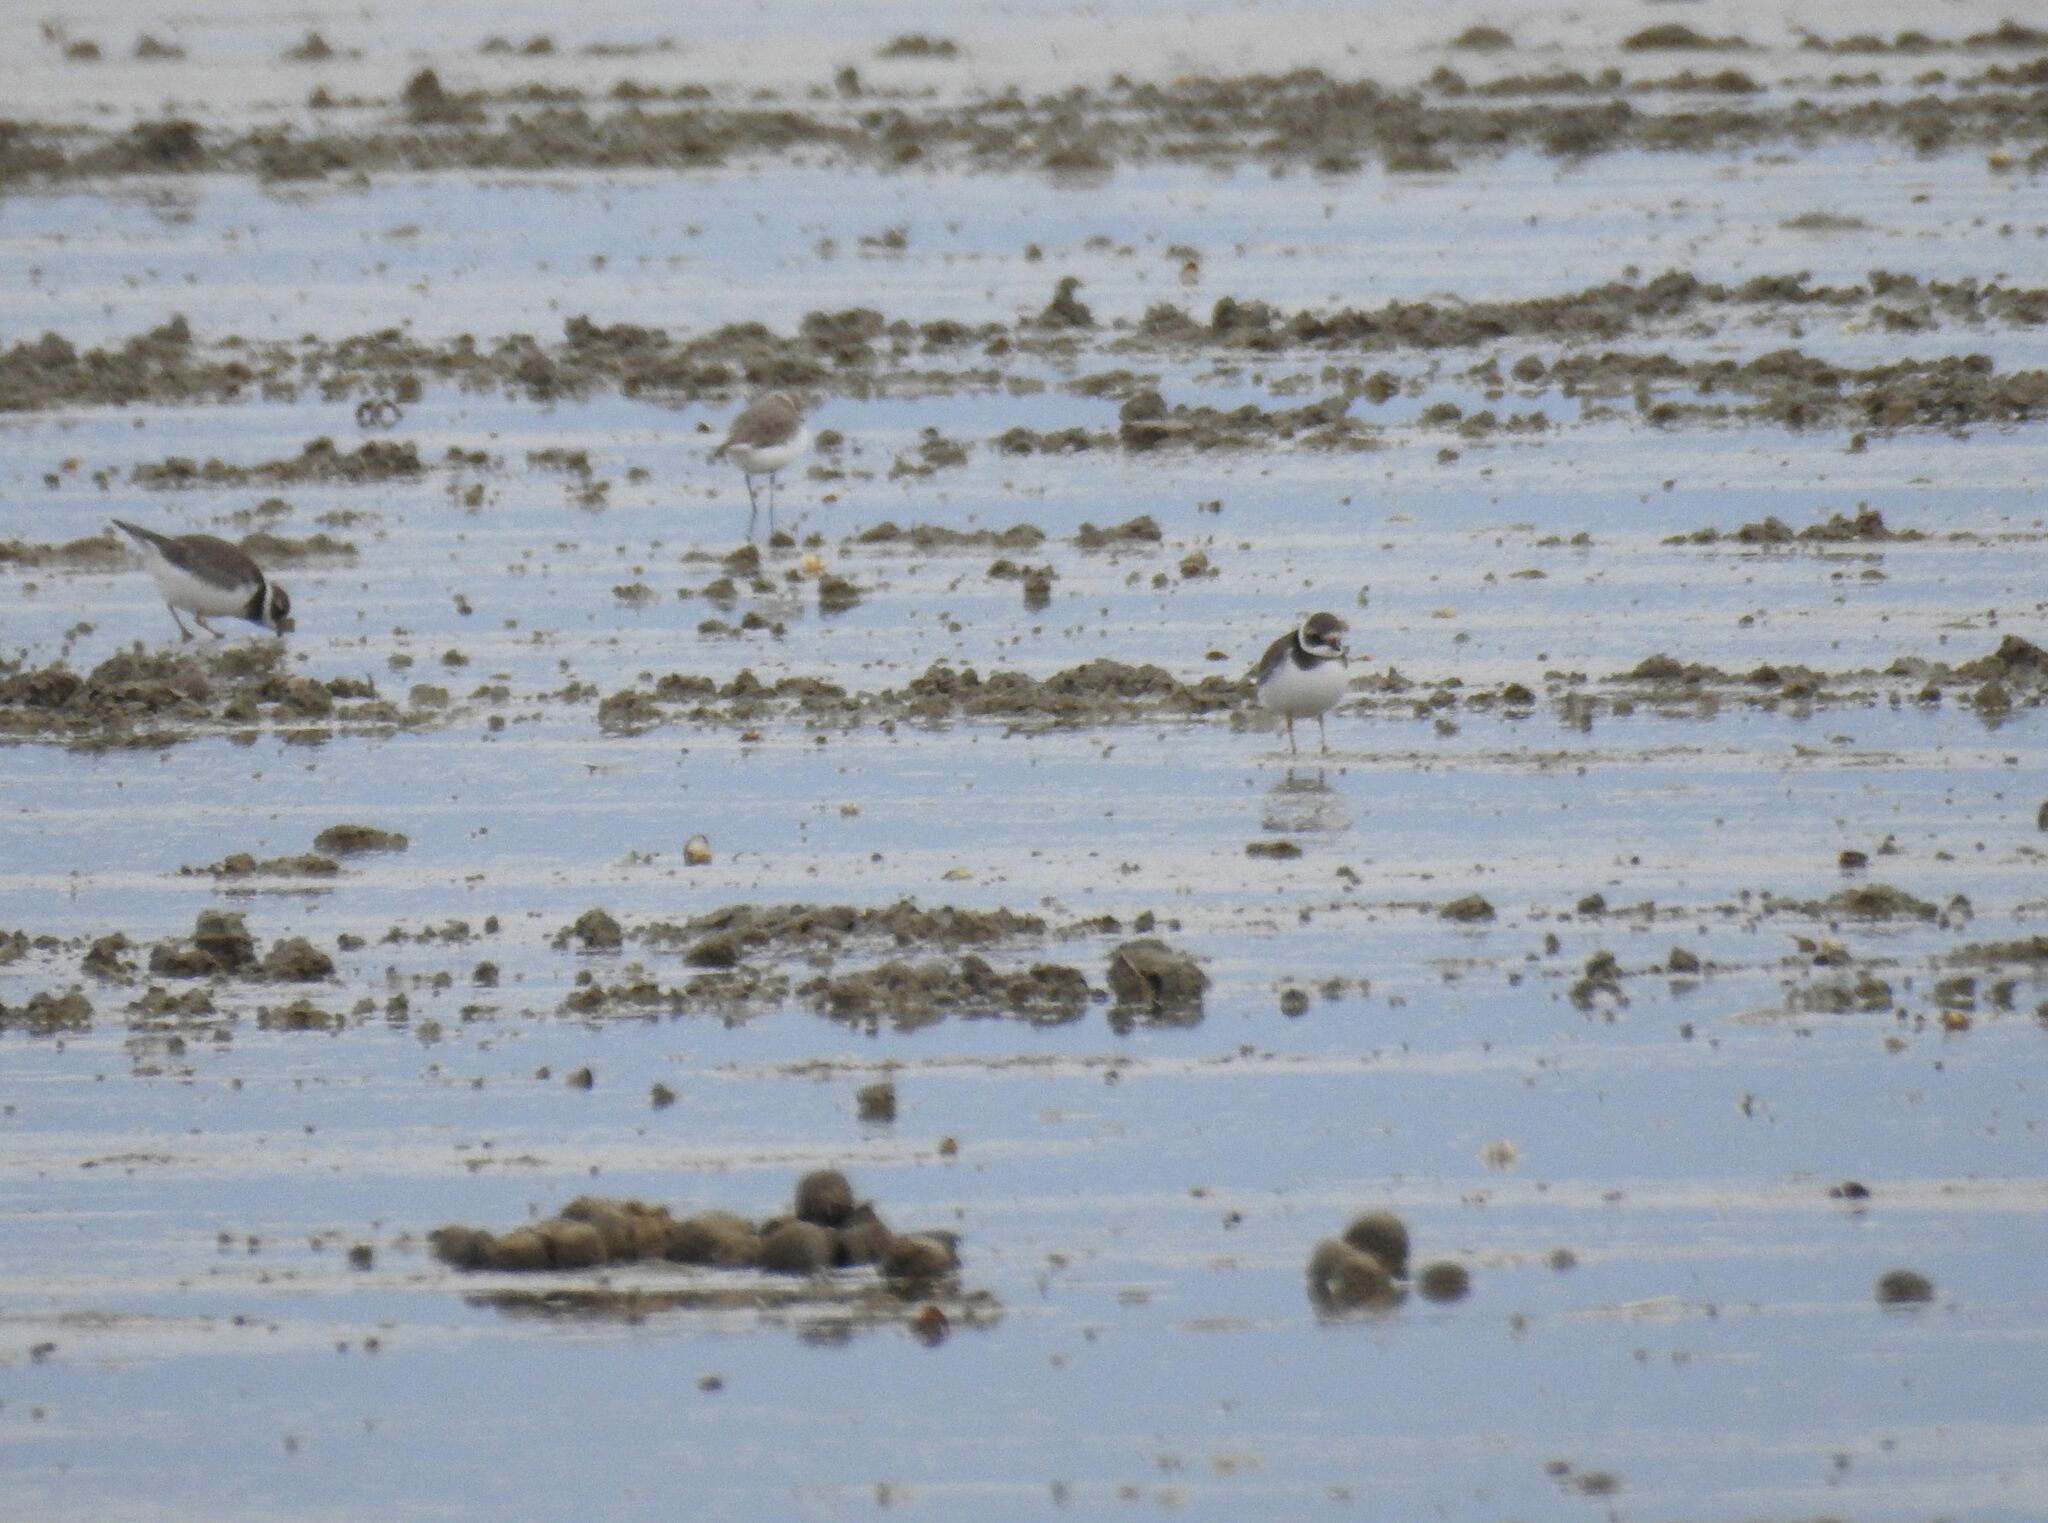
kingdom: Animalia
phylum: Chordata
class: Aves
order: Charadriiformes
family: Charadriidae
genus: Charadrius
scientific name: Charadrius hiaticula
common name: Common ringed plover
